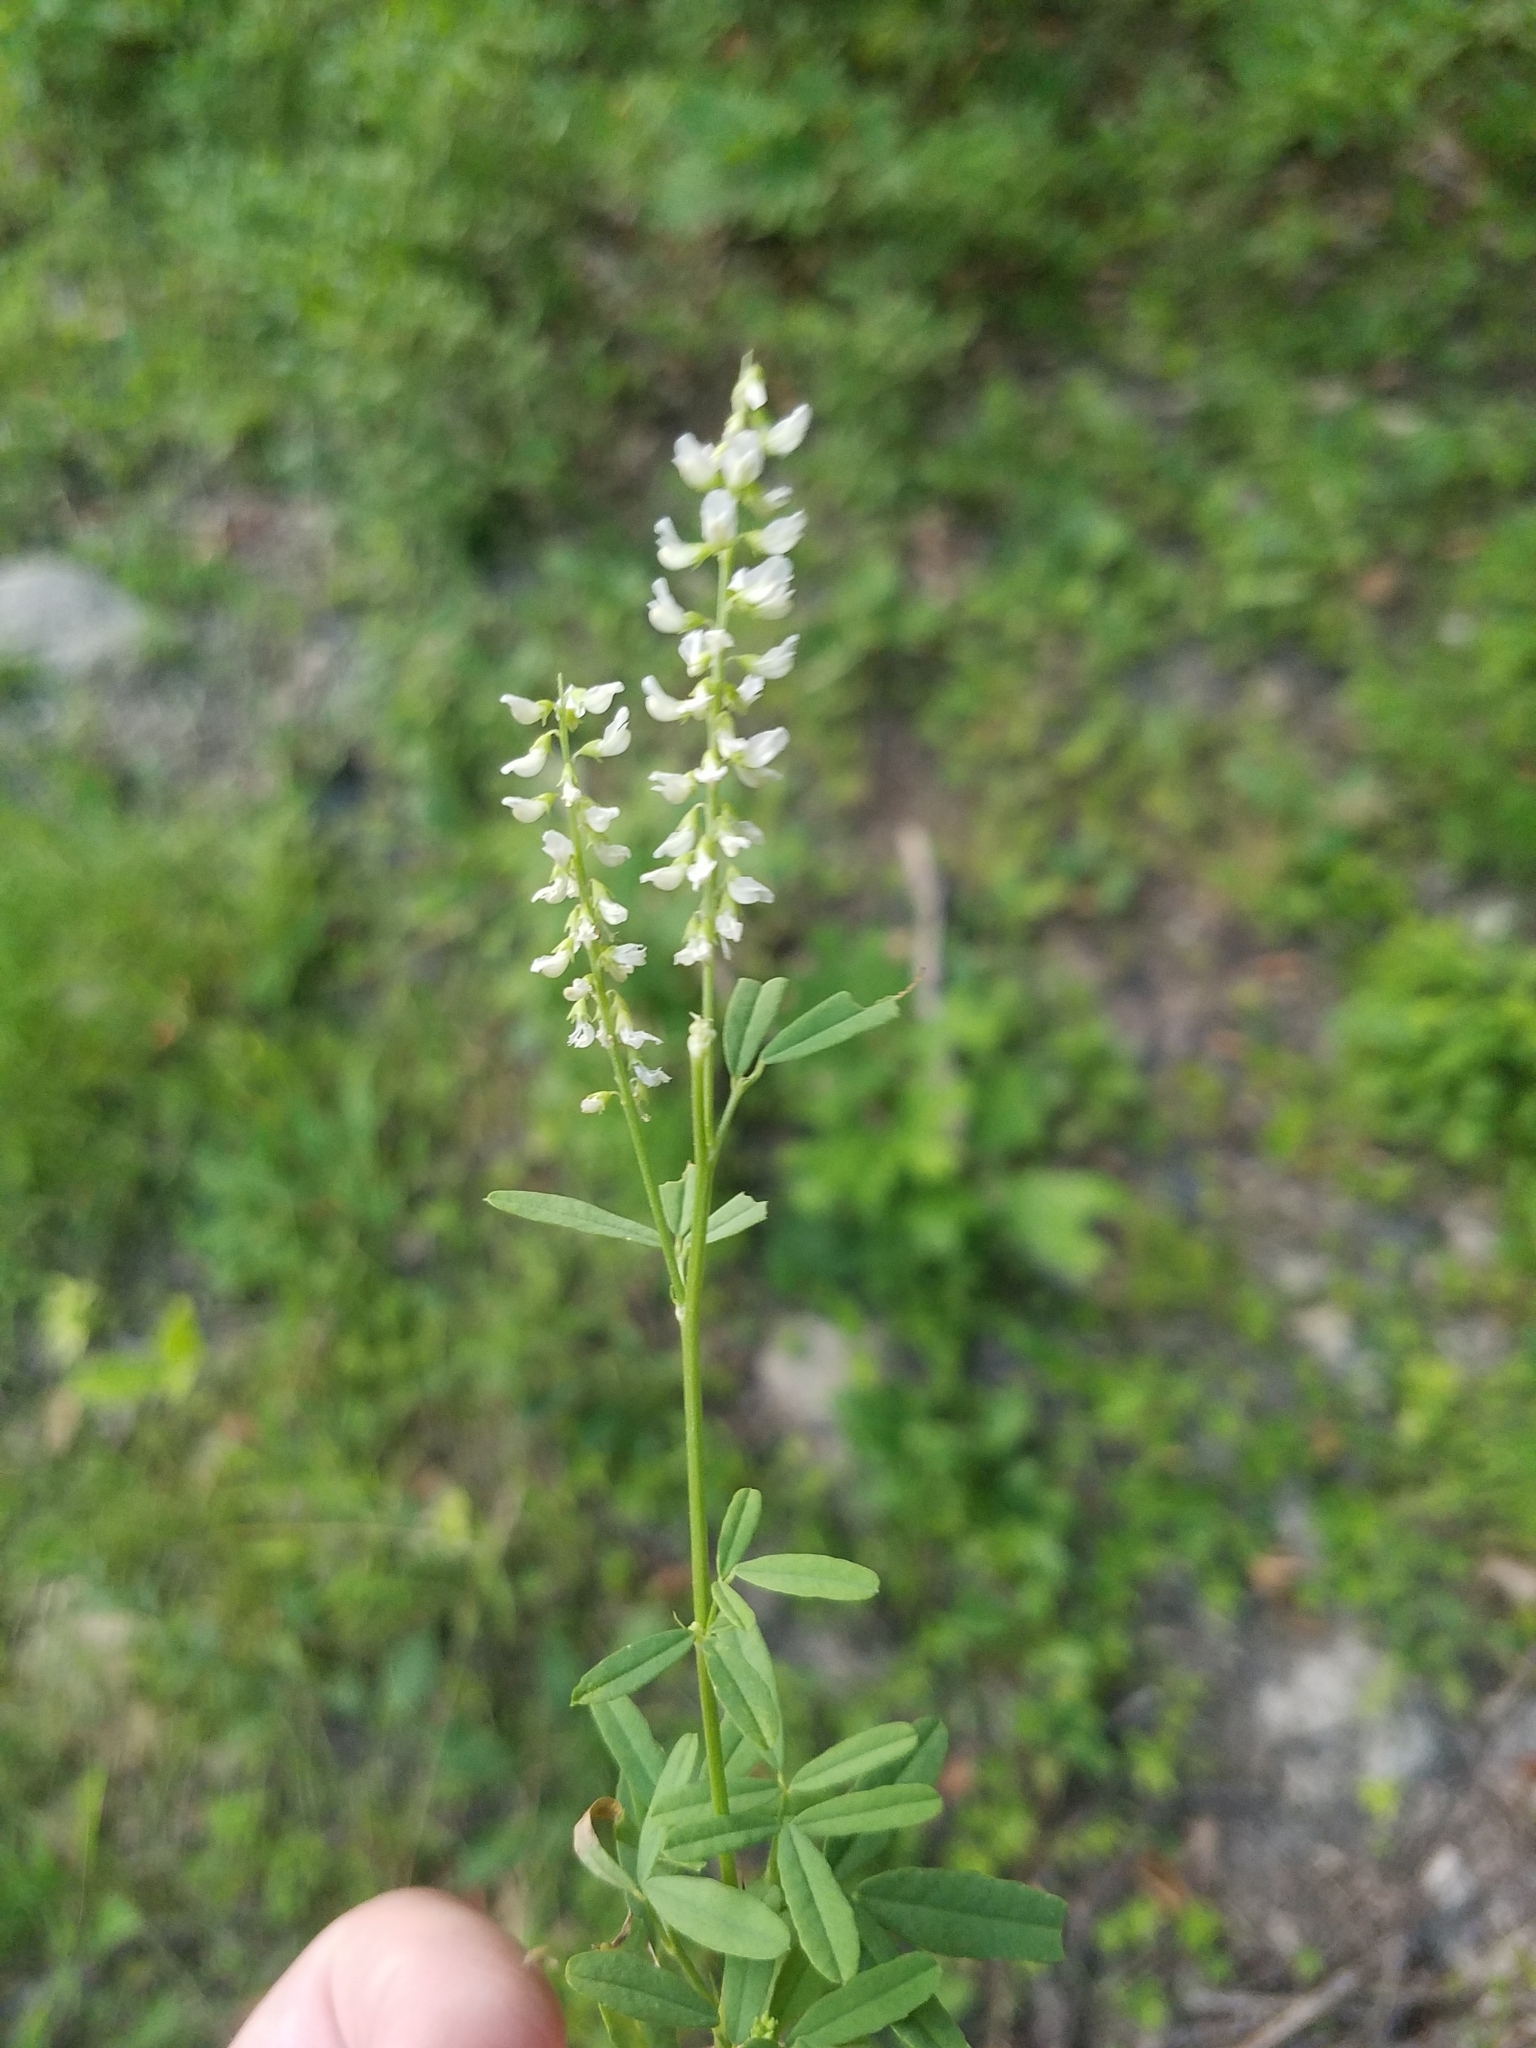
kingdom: Plantae
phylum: Tracheophyta
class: Magnoliopsida
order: Fabales
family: Fabaceae
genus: Melilotus
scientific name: Melilotus albus
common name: White melilot
